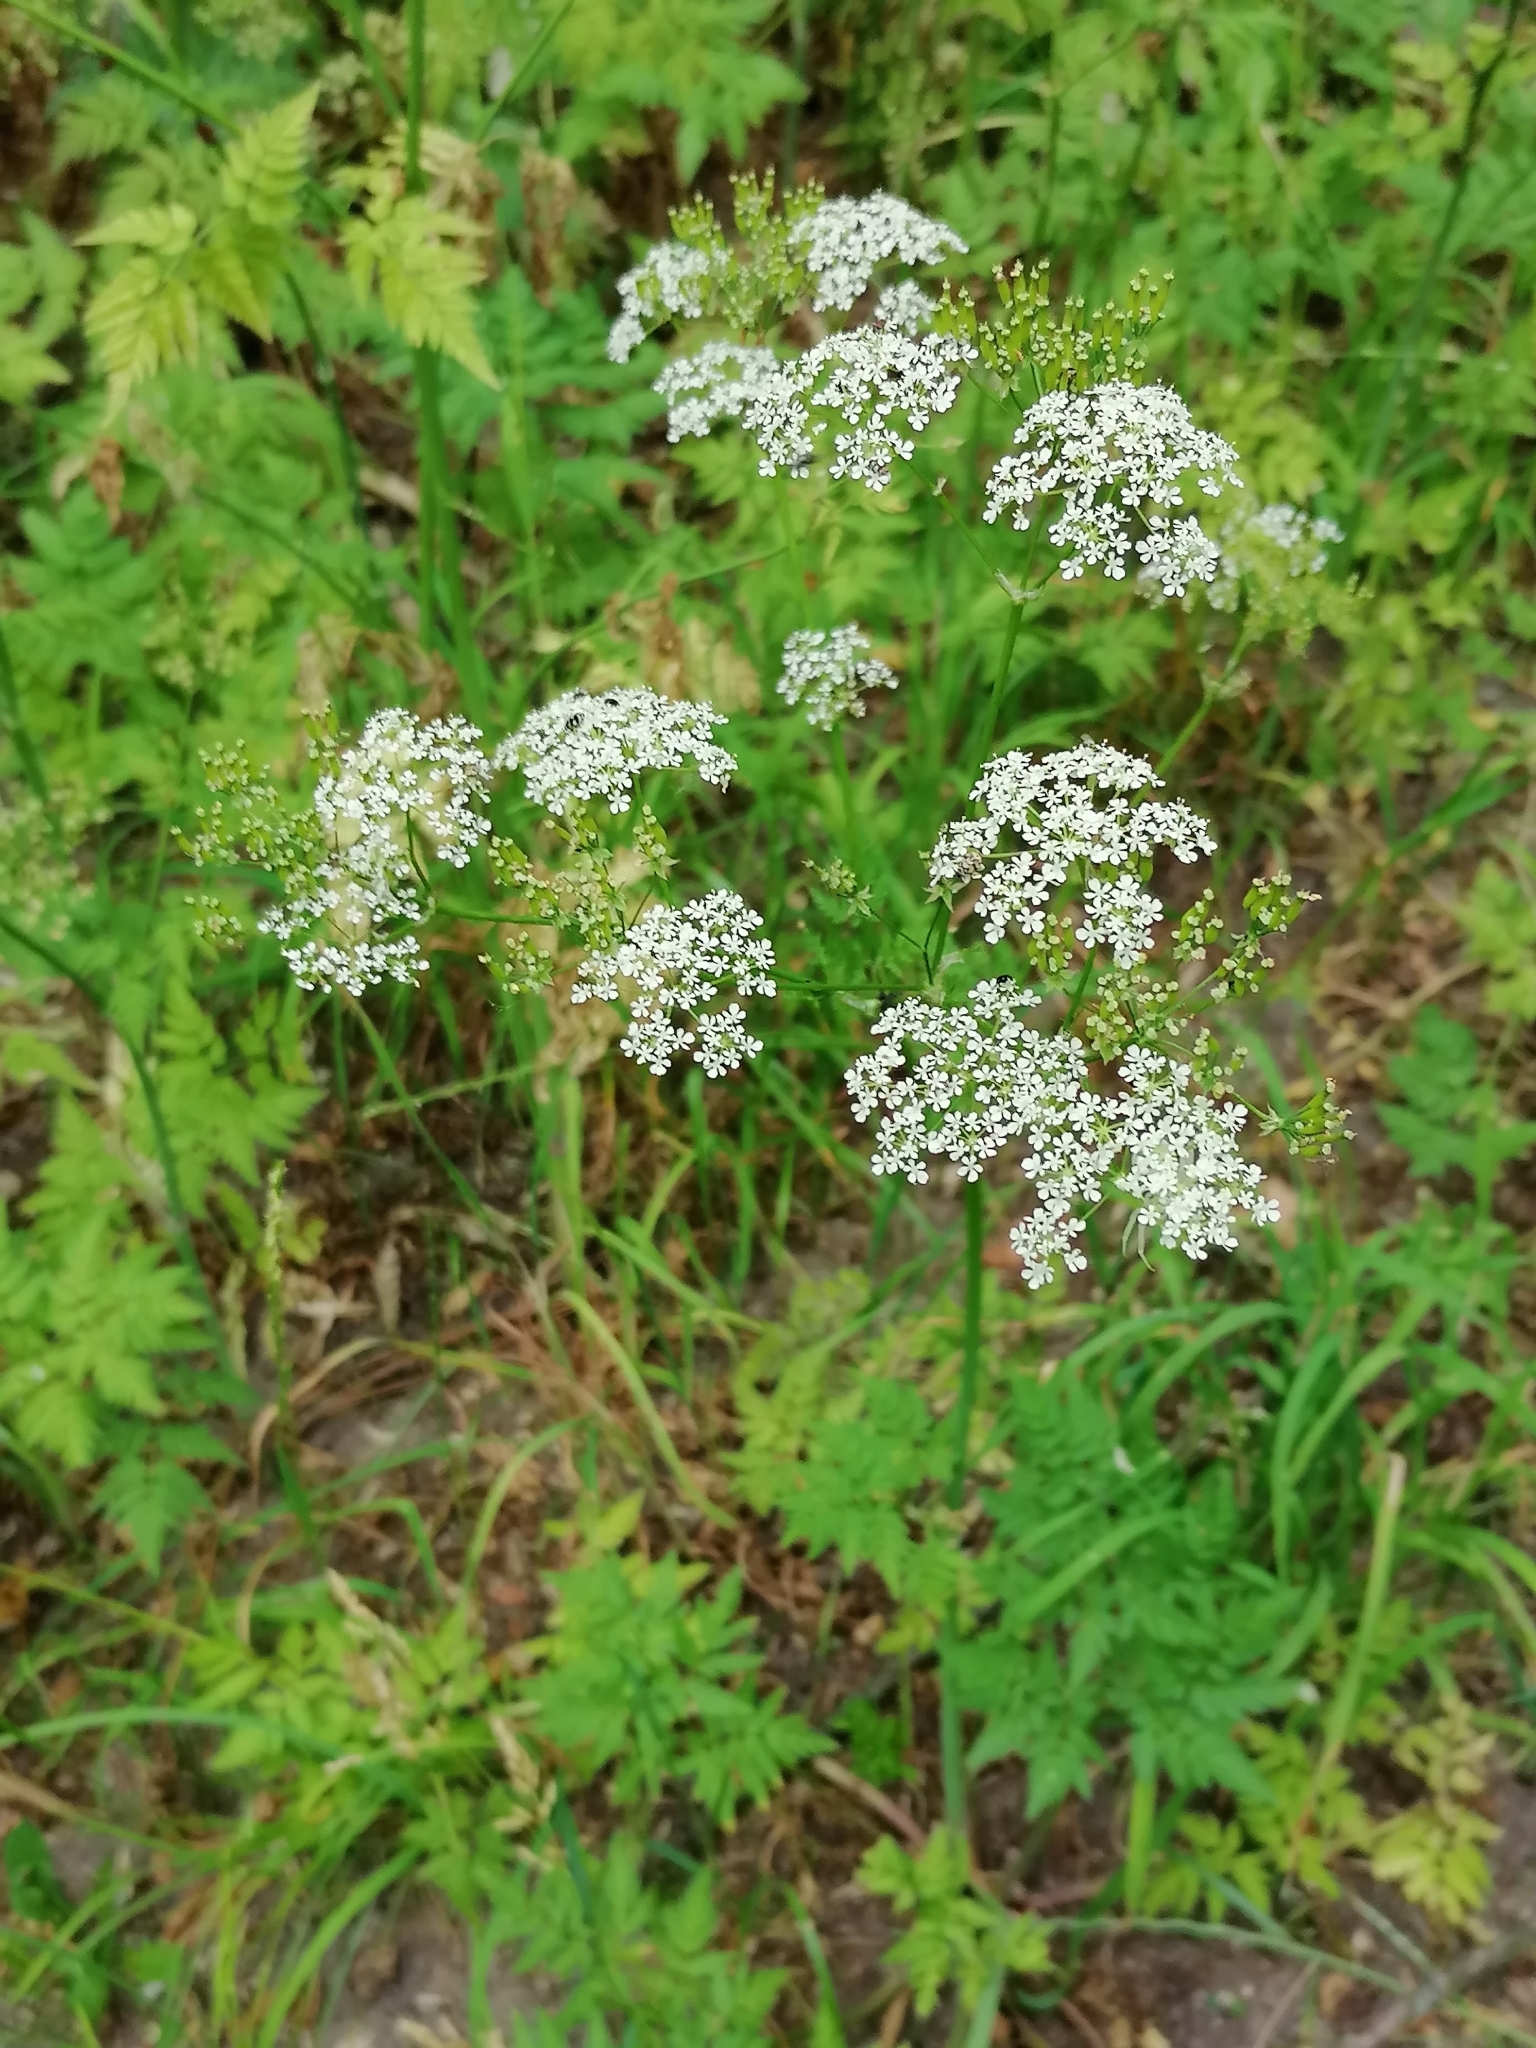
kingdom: Plantae
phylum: Tracheophyta
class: Magnoliopsida
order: Apiales
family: Apiaceae
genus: Anthriscus
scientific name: Anthriscus sylvestris
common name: Cow parsley
